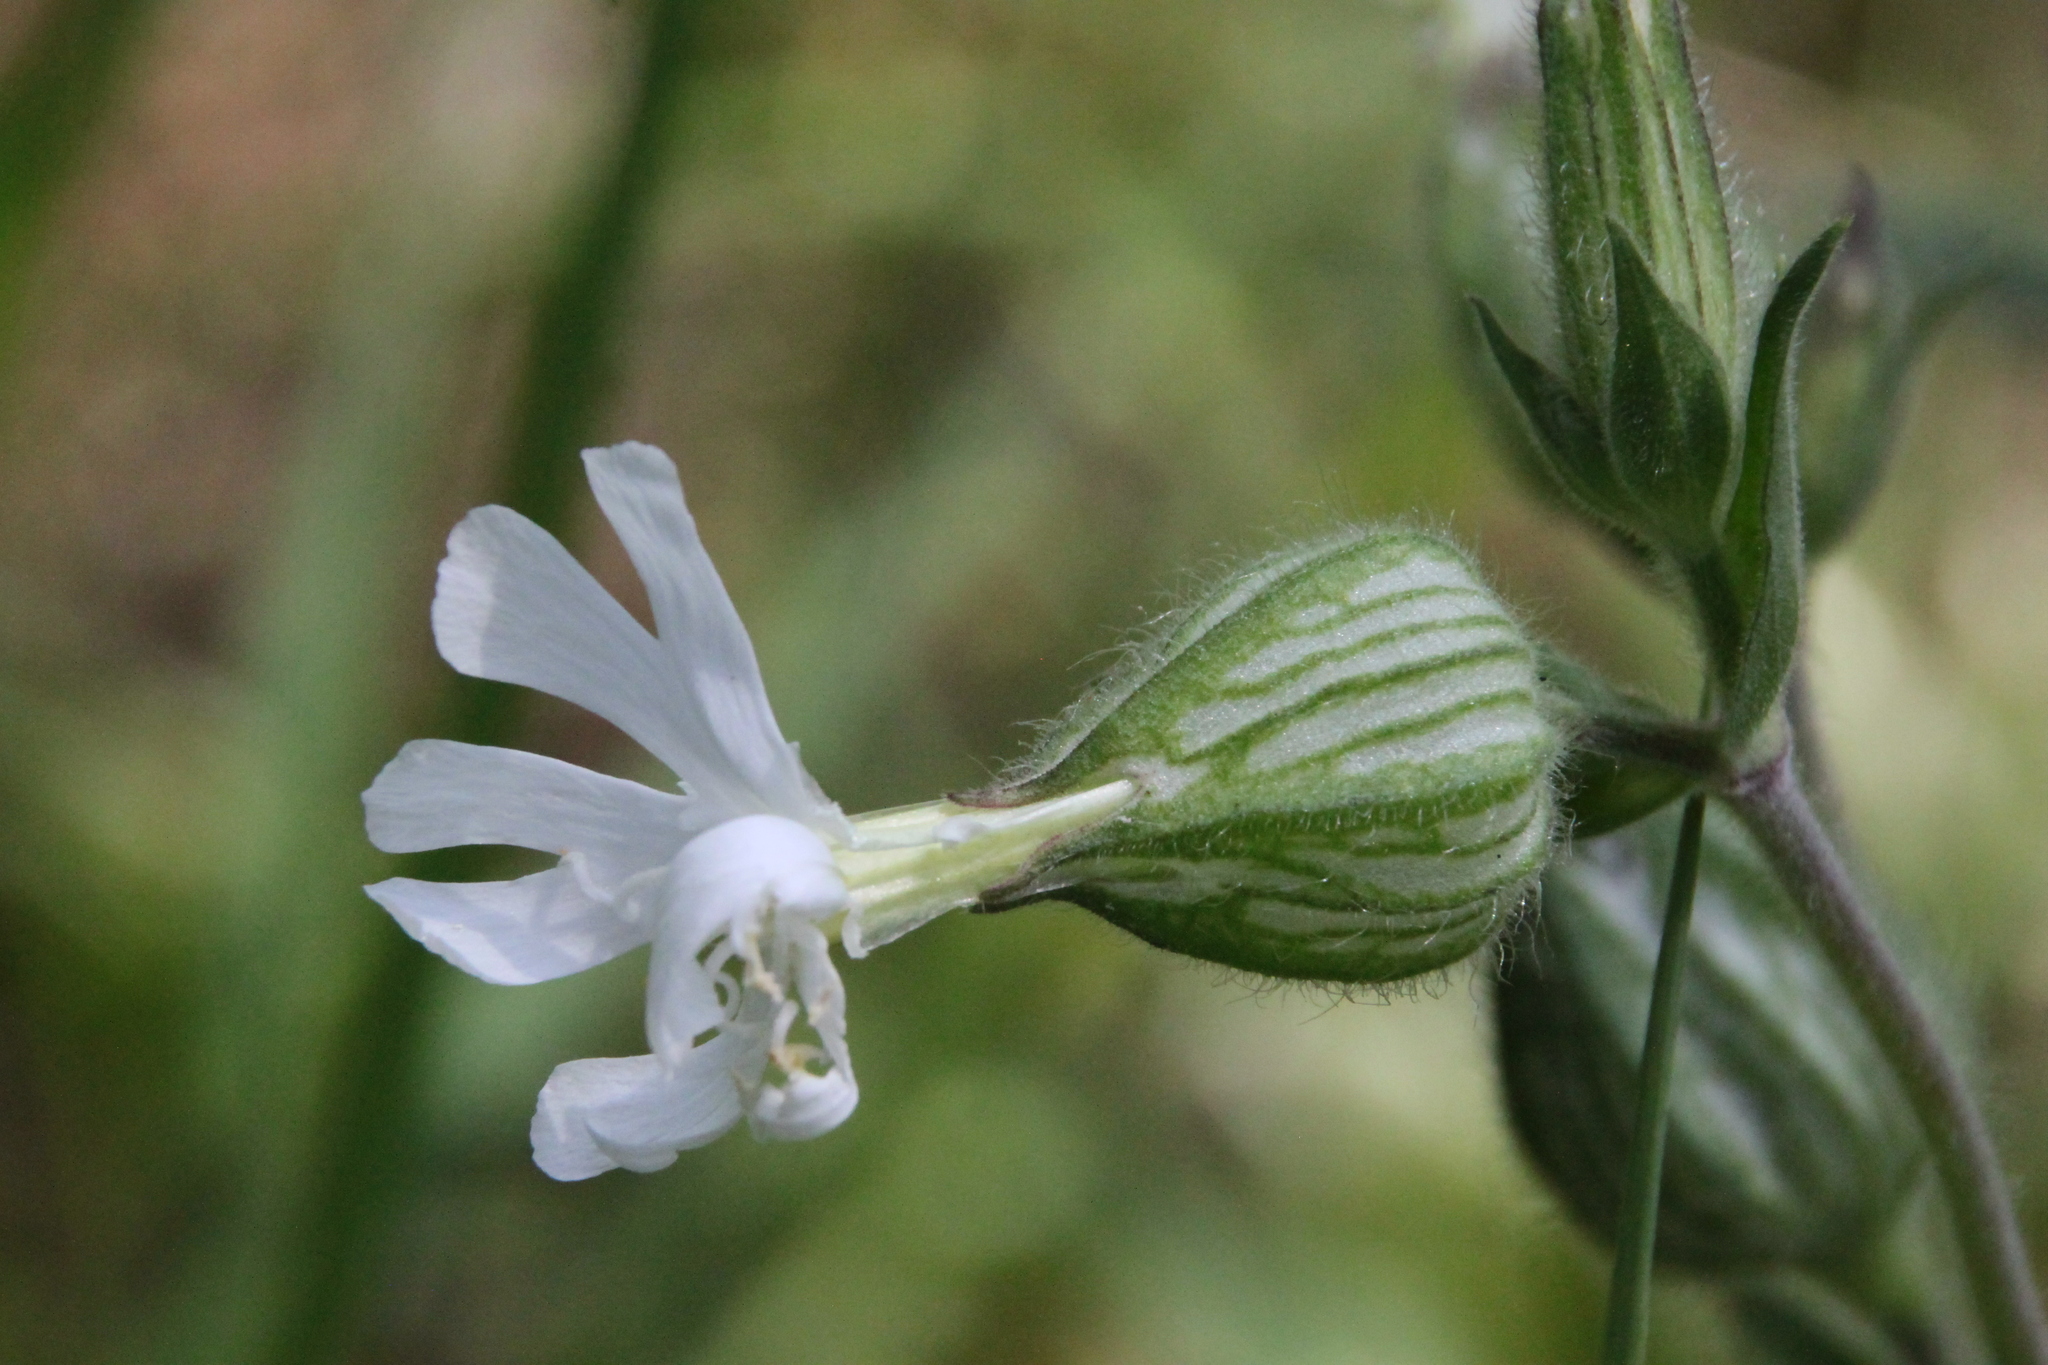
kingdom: Plantae
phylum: Tracheophyta
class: Magnoliopsida
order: Caryophyllales
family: Caryophyllaceae
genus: Silene
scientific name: Silene latifolia
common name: White campion
